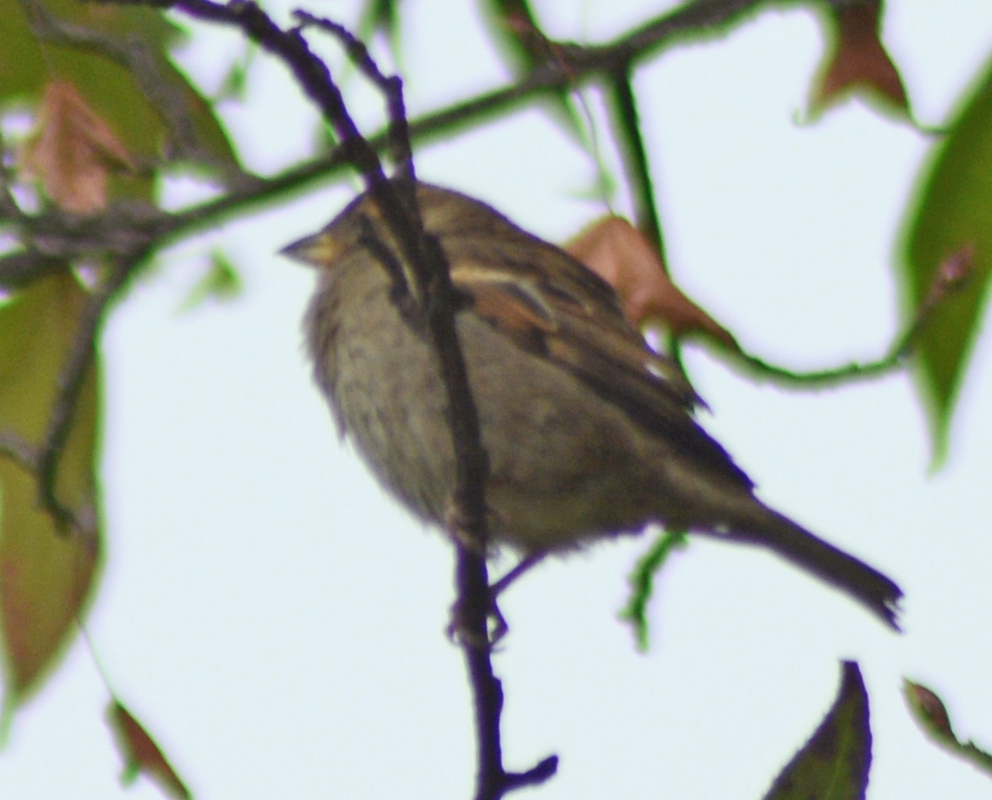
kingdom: Animalia
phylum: Chordata
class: Aves
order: Passeriformes
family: Passeridae
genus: Passer
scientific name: Passer domesticus
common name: House sparrow
